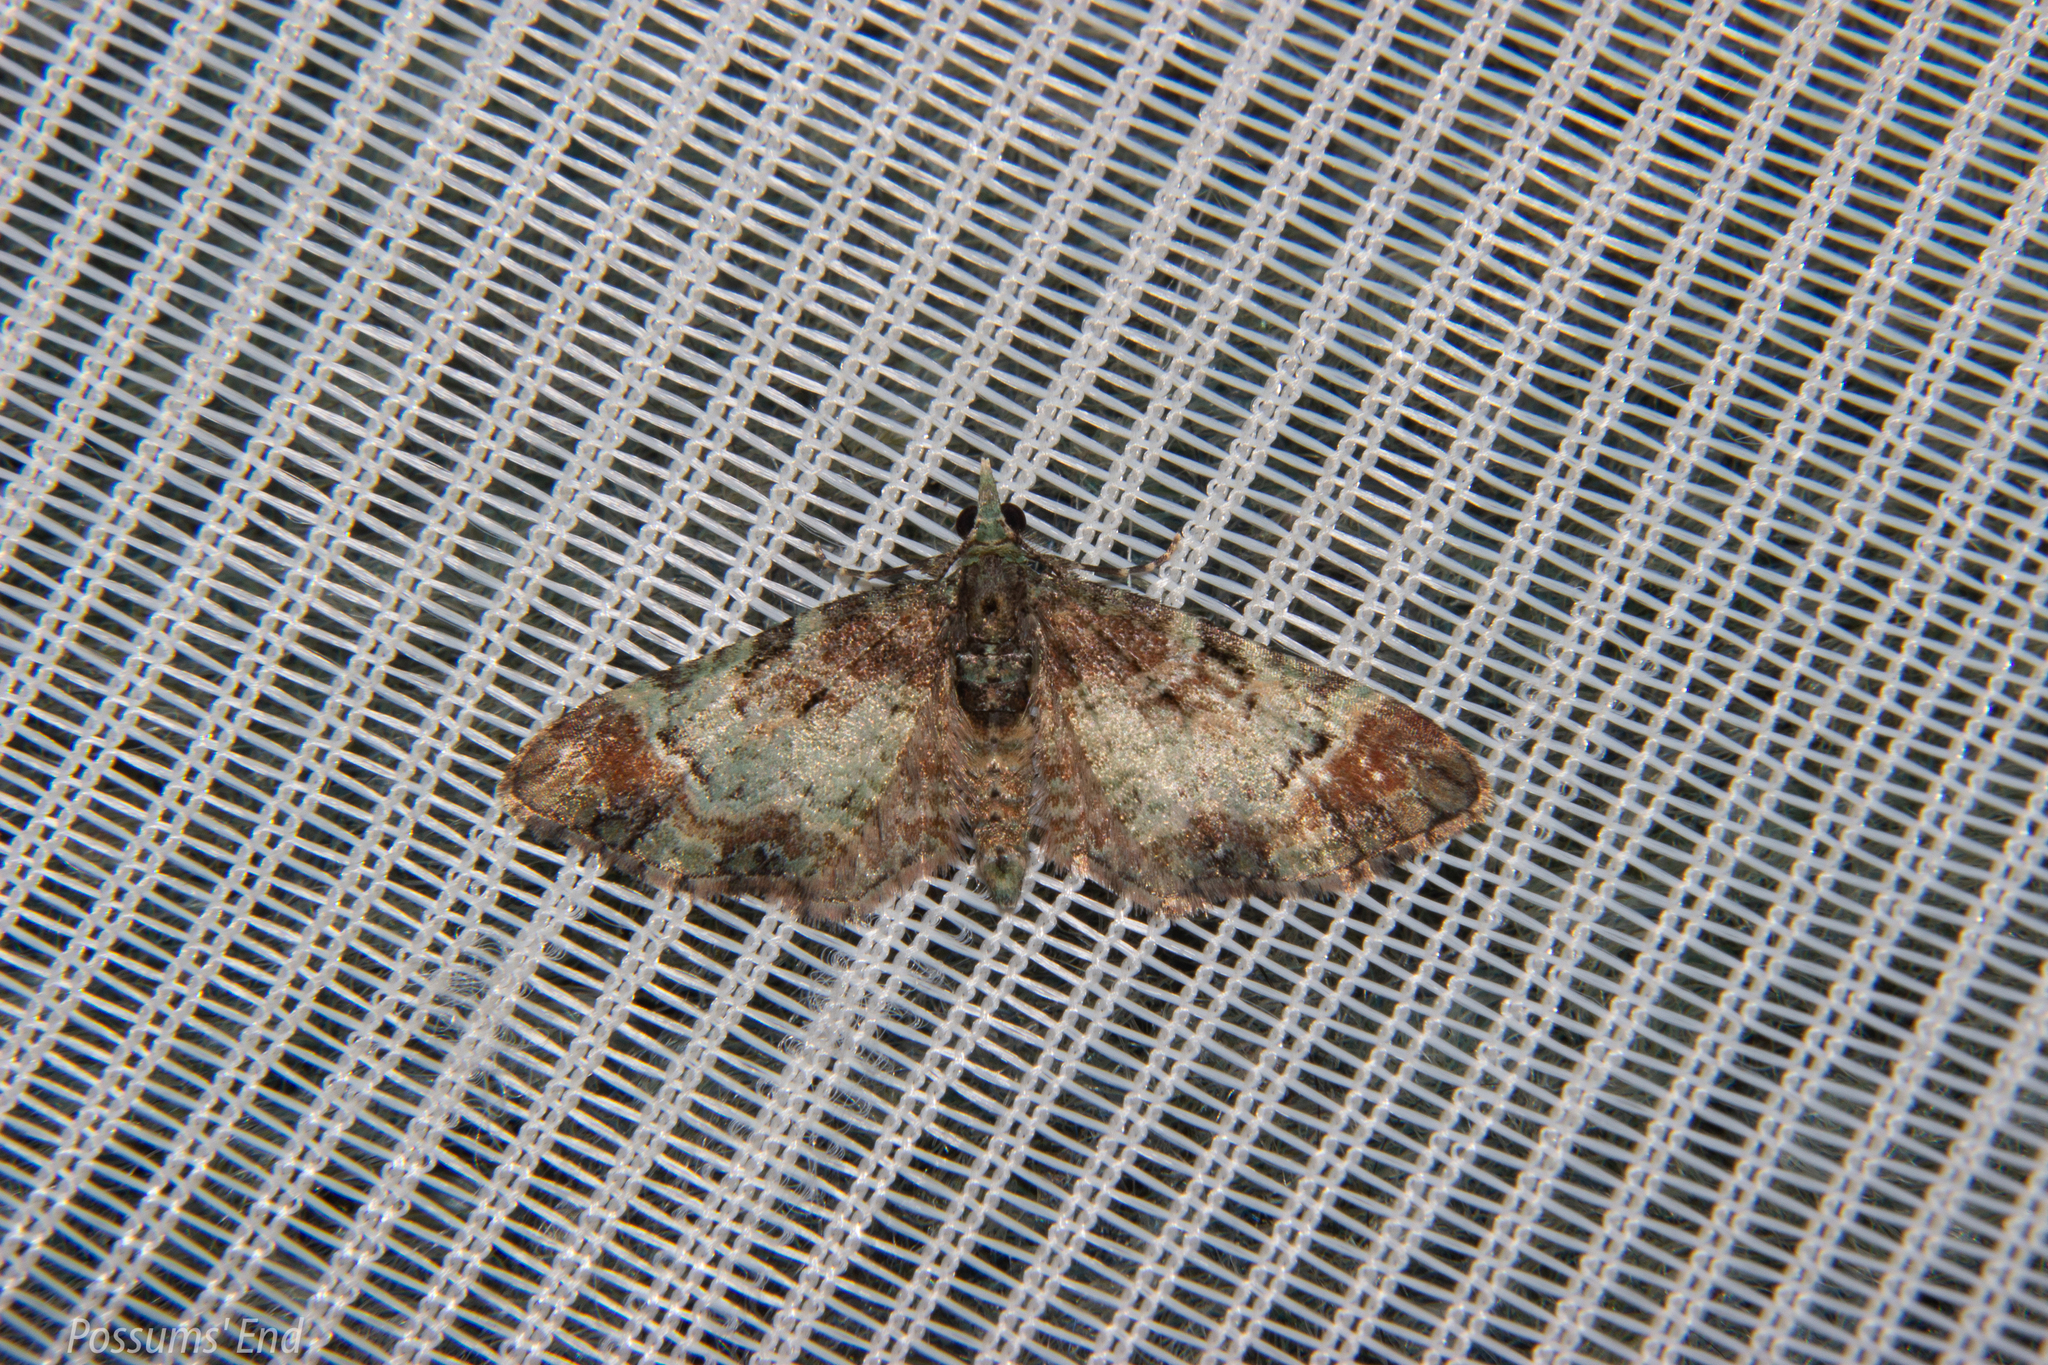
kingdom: Animalia
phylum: Arthropoda
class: Insecta
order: Lepidoptera
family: Geometridae
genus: Pasiphila
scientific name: Pasiphila sandycias
